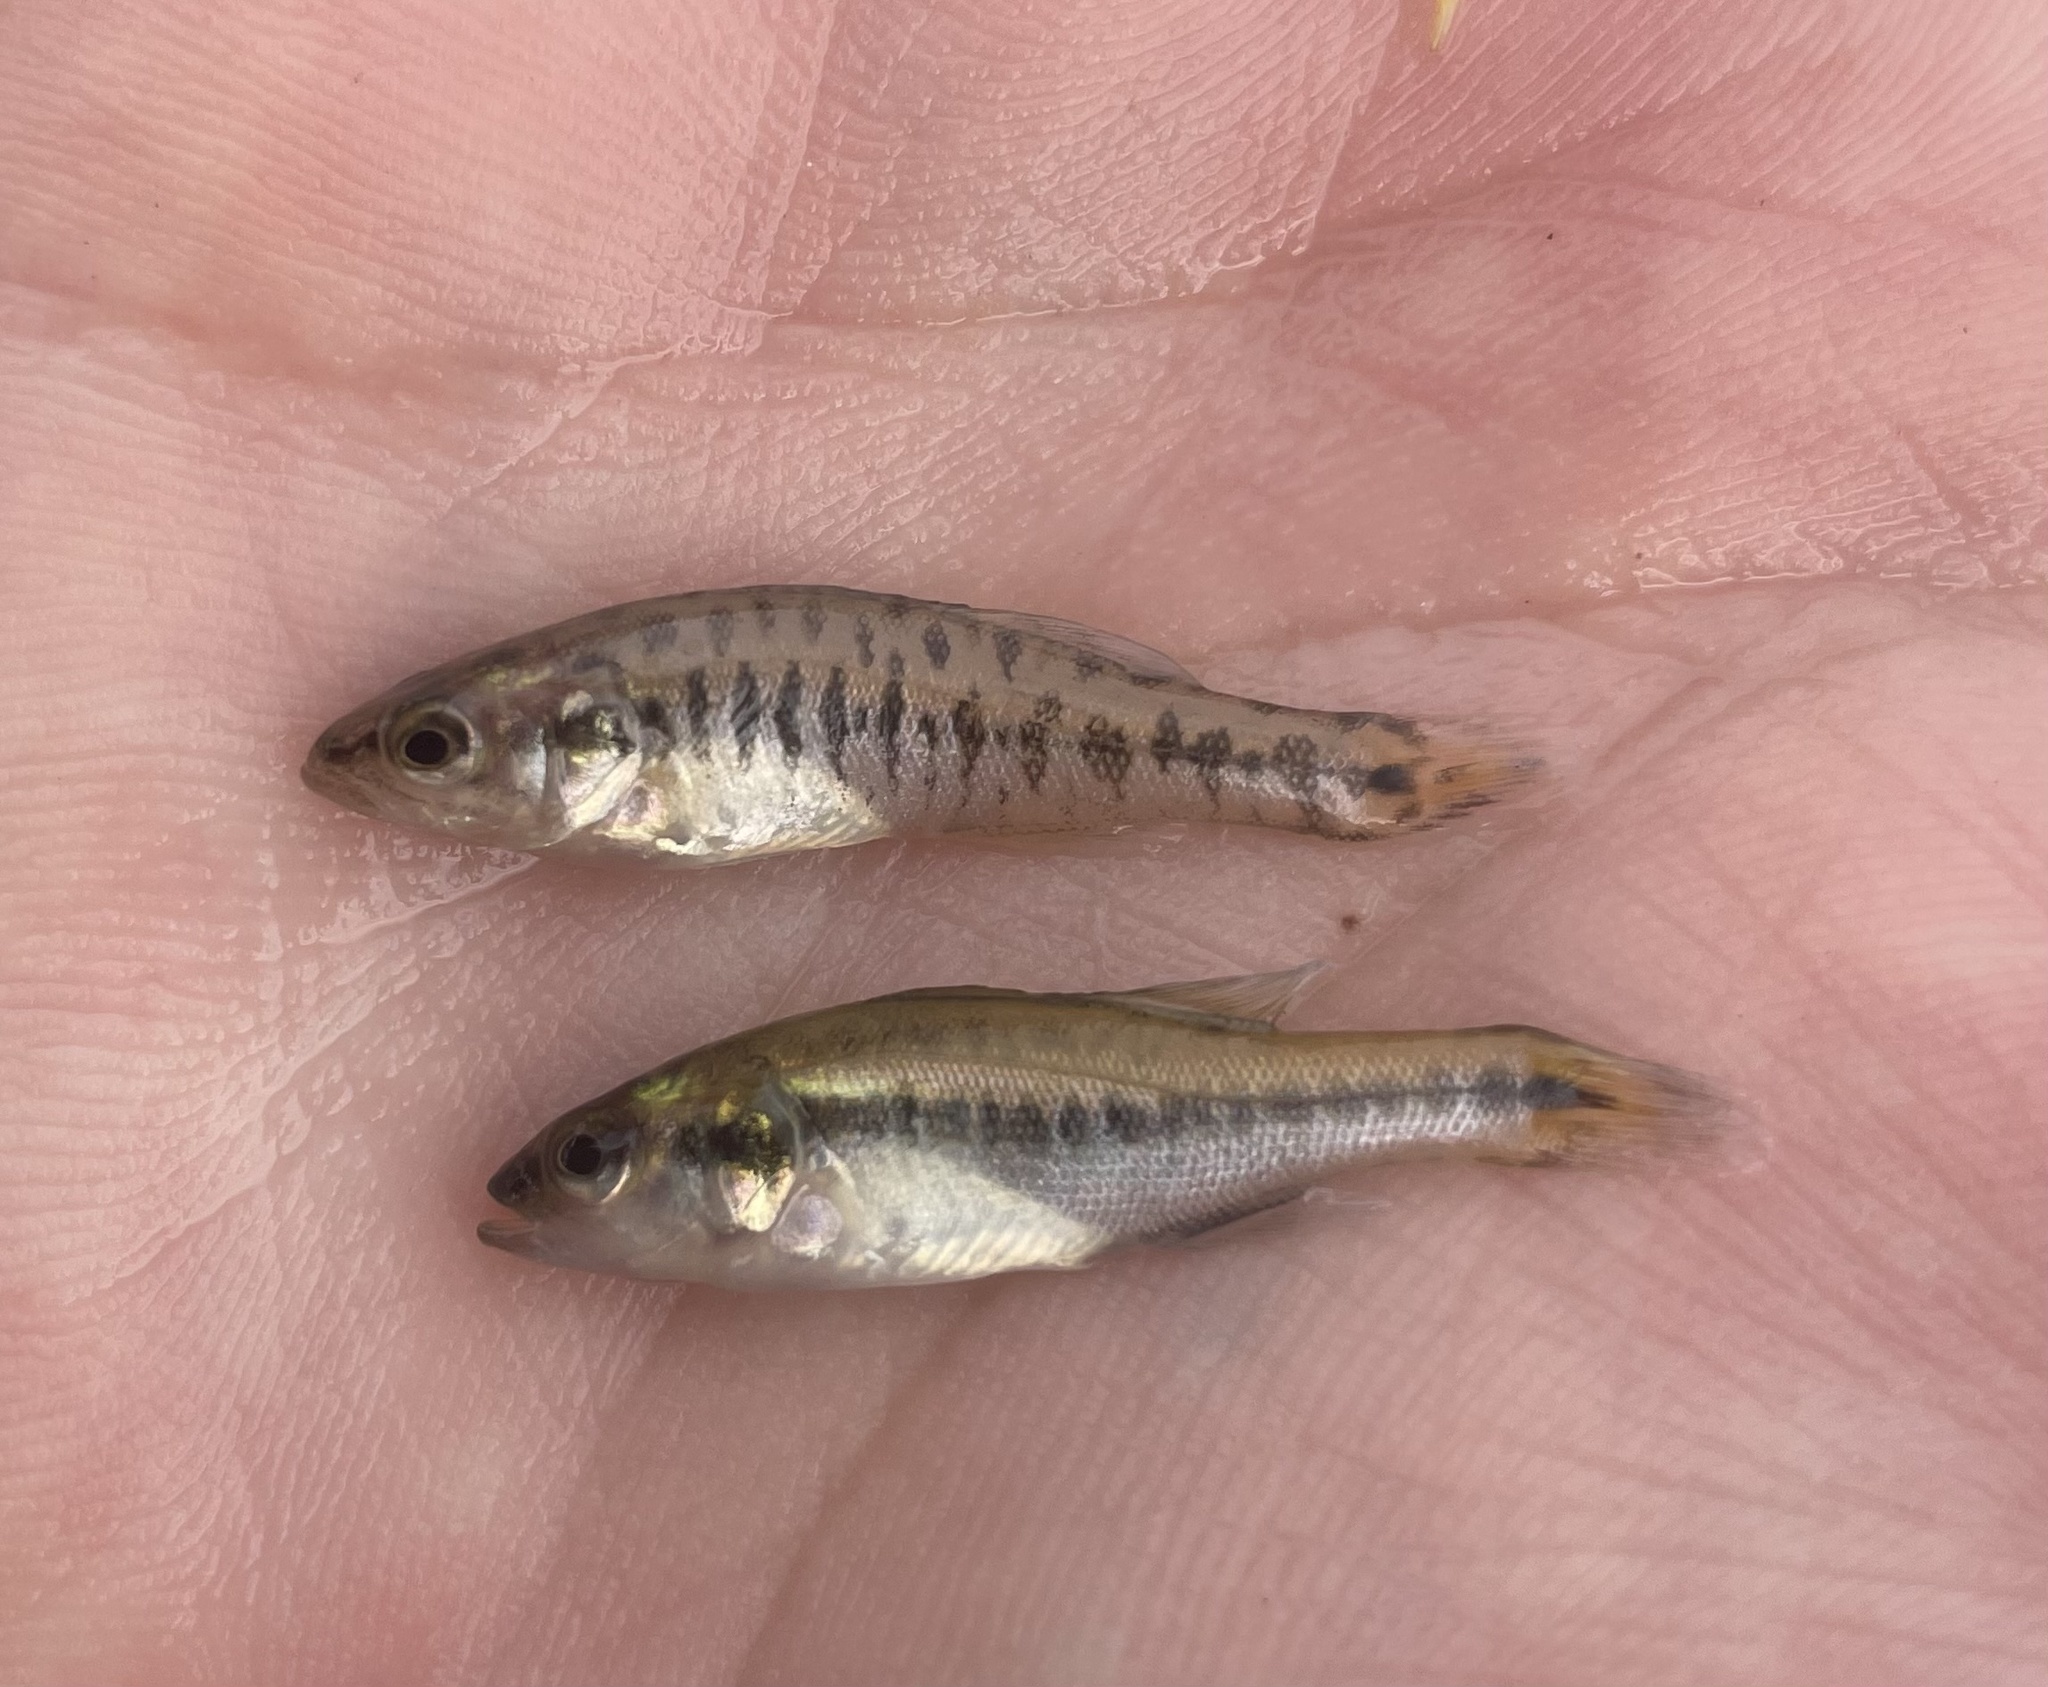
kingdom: Animalia
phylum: Chordata
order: Perciformes
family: Centrarchidae
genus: Micropterus
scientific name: Micropterus
